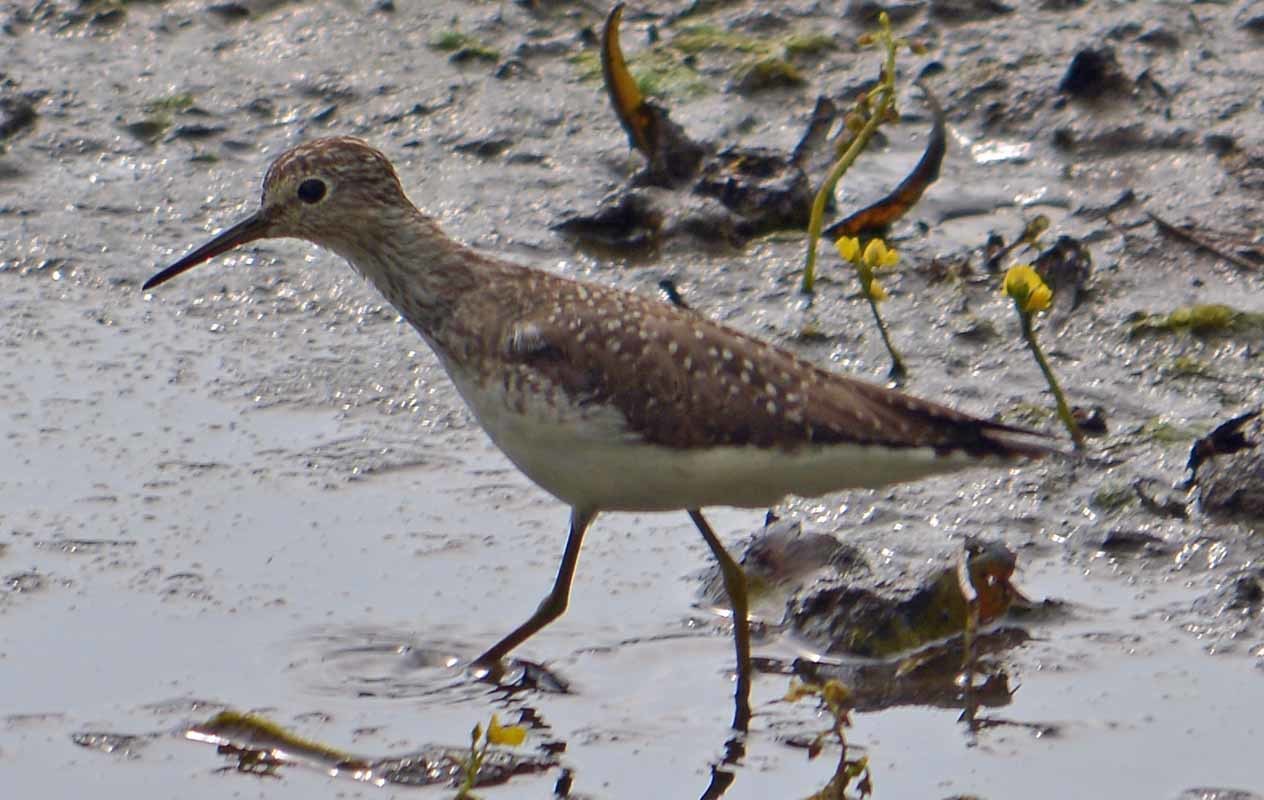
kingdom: Animalia
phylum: Chordata
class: Aves
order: Charadriiformes
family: Scolopacidae
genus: Tringa
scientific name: Tringa flavipes
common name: Lesser yellowlegs
